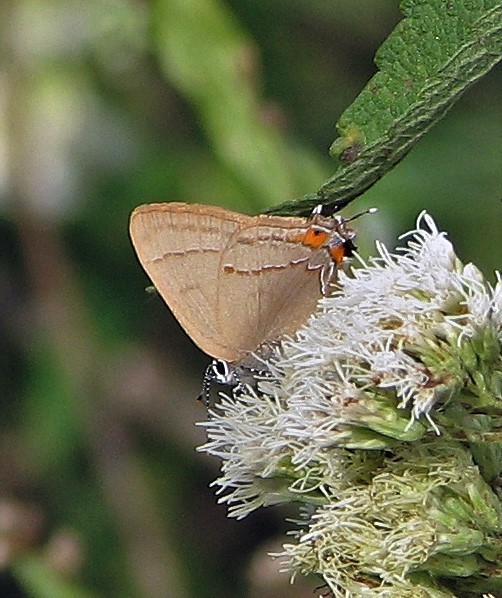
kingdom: Animalia
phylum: Arthropoda
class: Insecta
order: Lepidoptera
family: Lycaenidae
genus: Badecla
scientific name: Badecla
